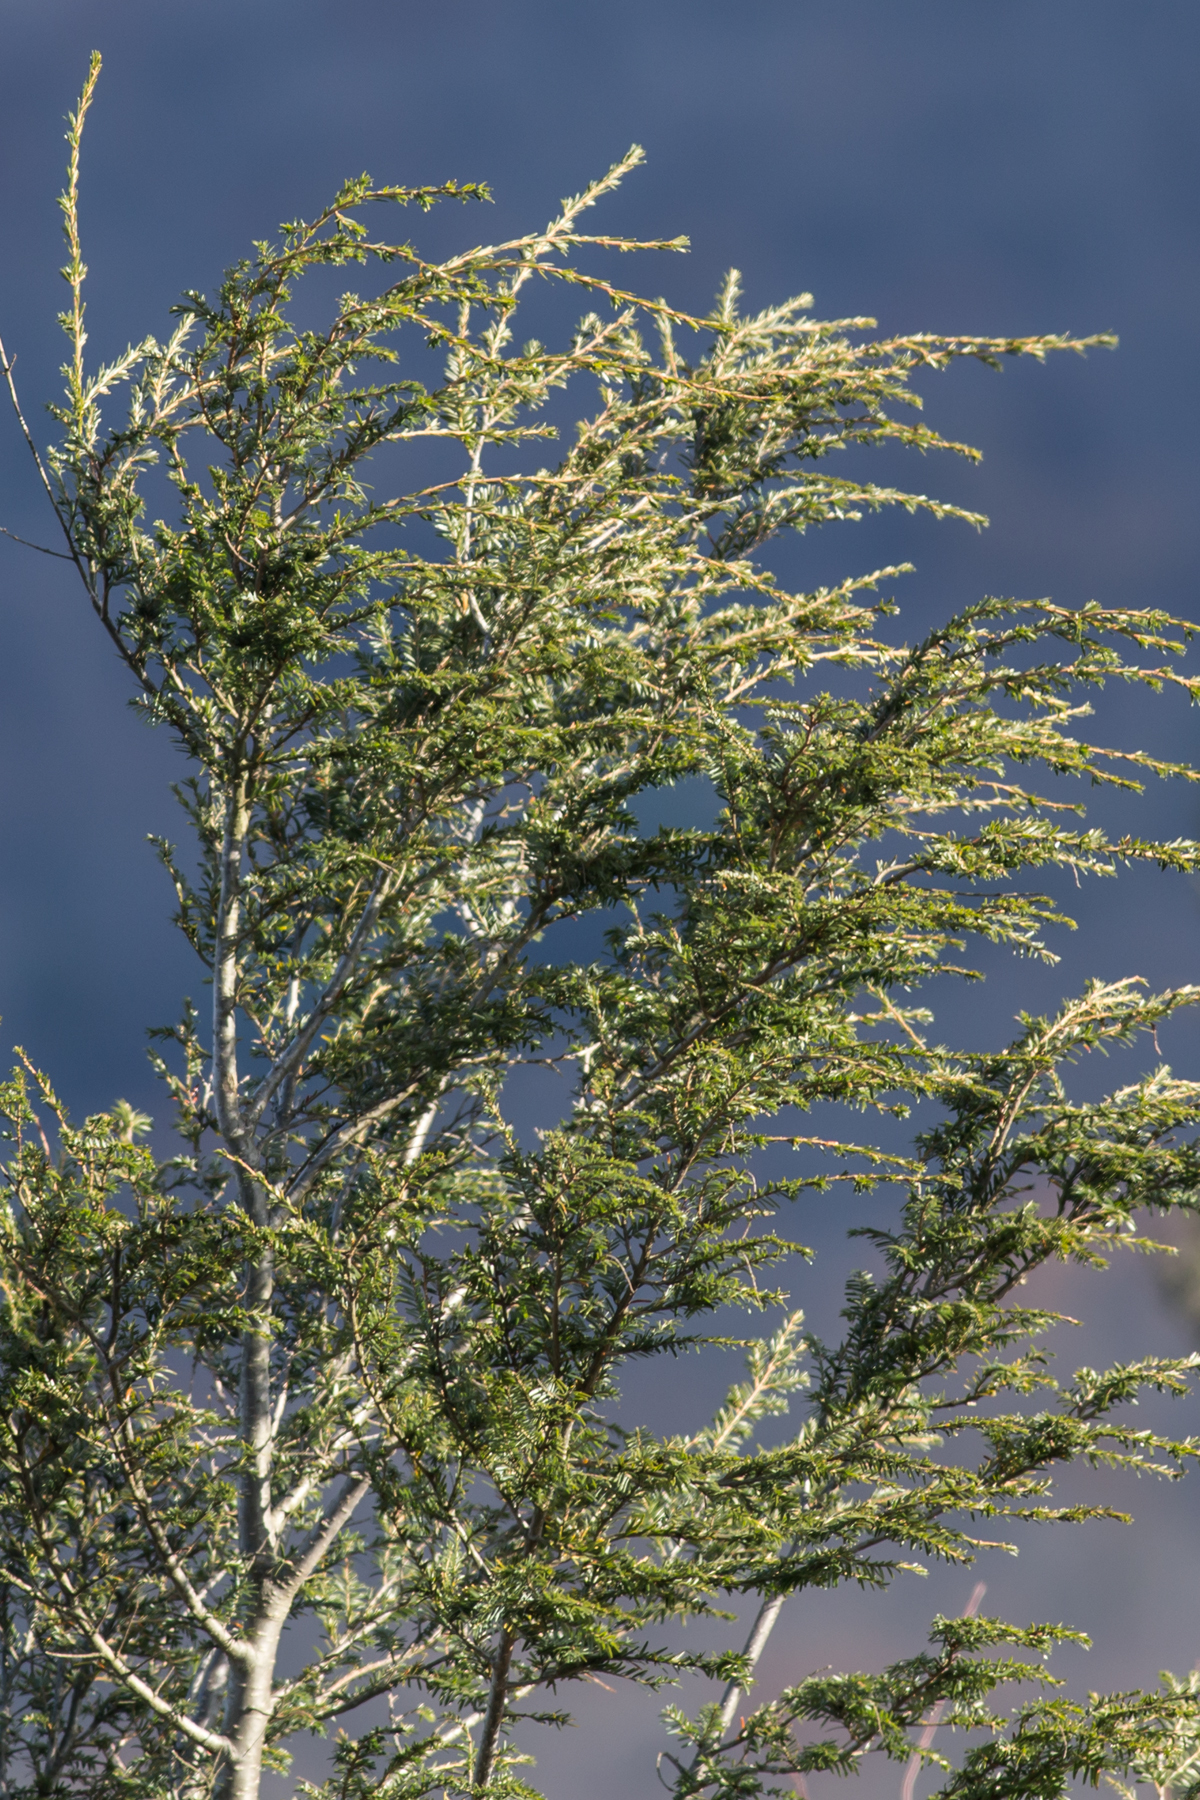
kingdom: Plantae
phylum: Tracheophyta
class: Pinopsida
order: Pinales
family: Pinaceae
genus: Tsuga
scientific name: Tsuga canadensis
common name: Eastern hemlock
